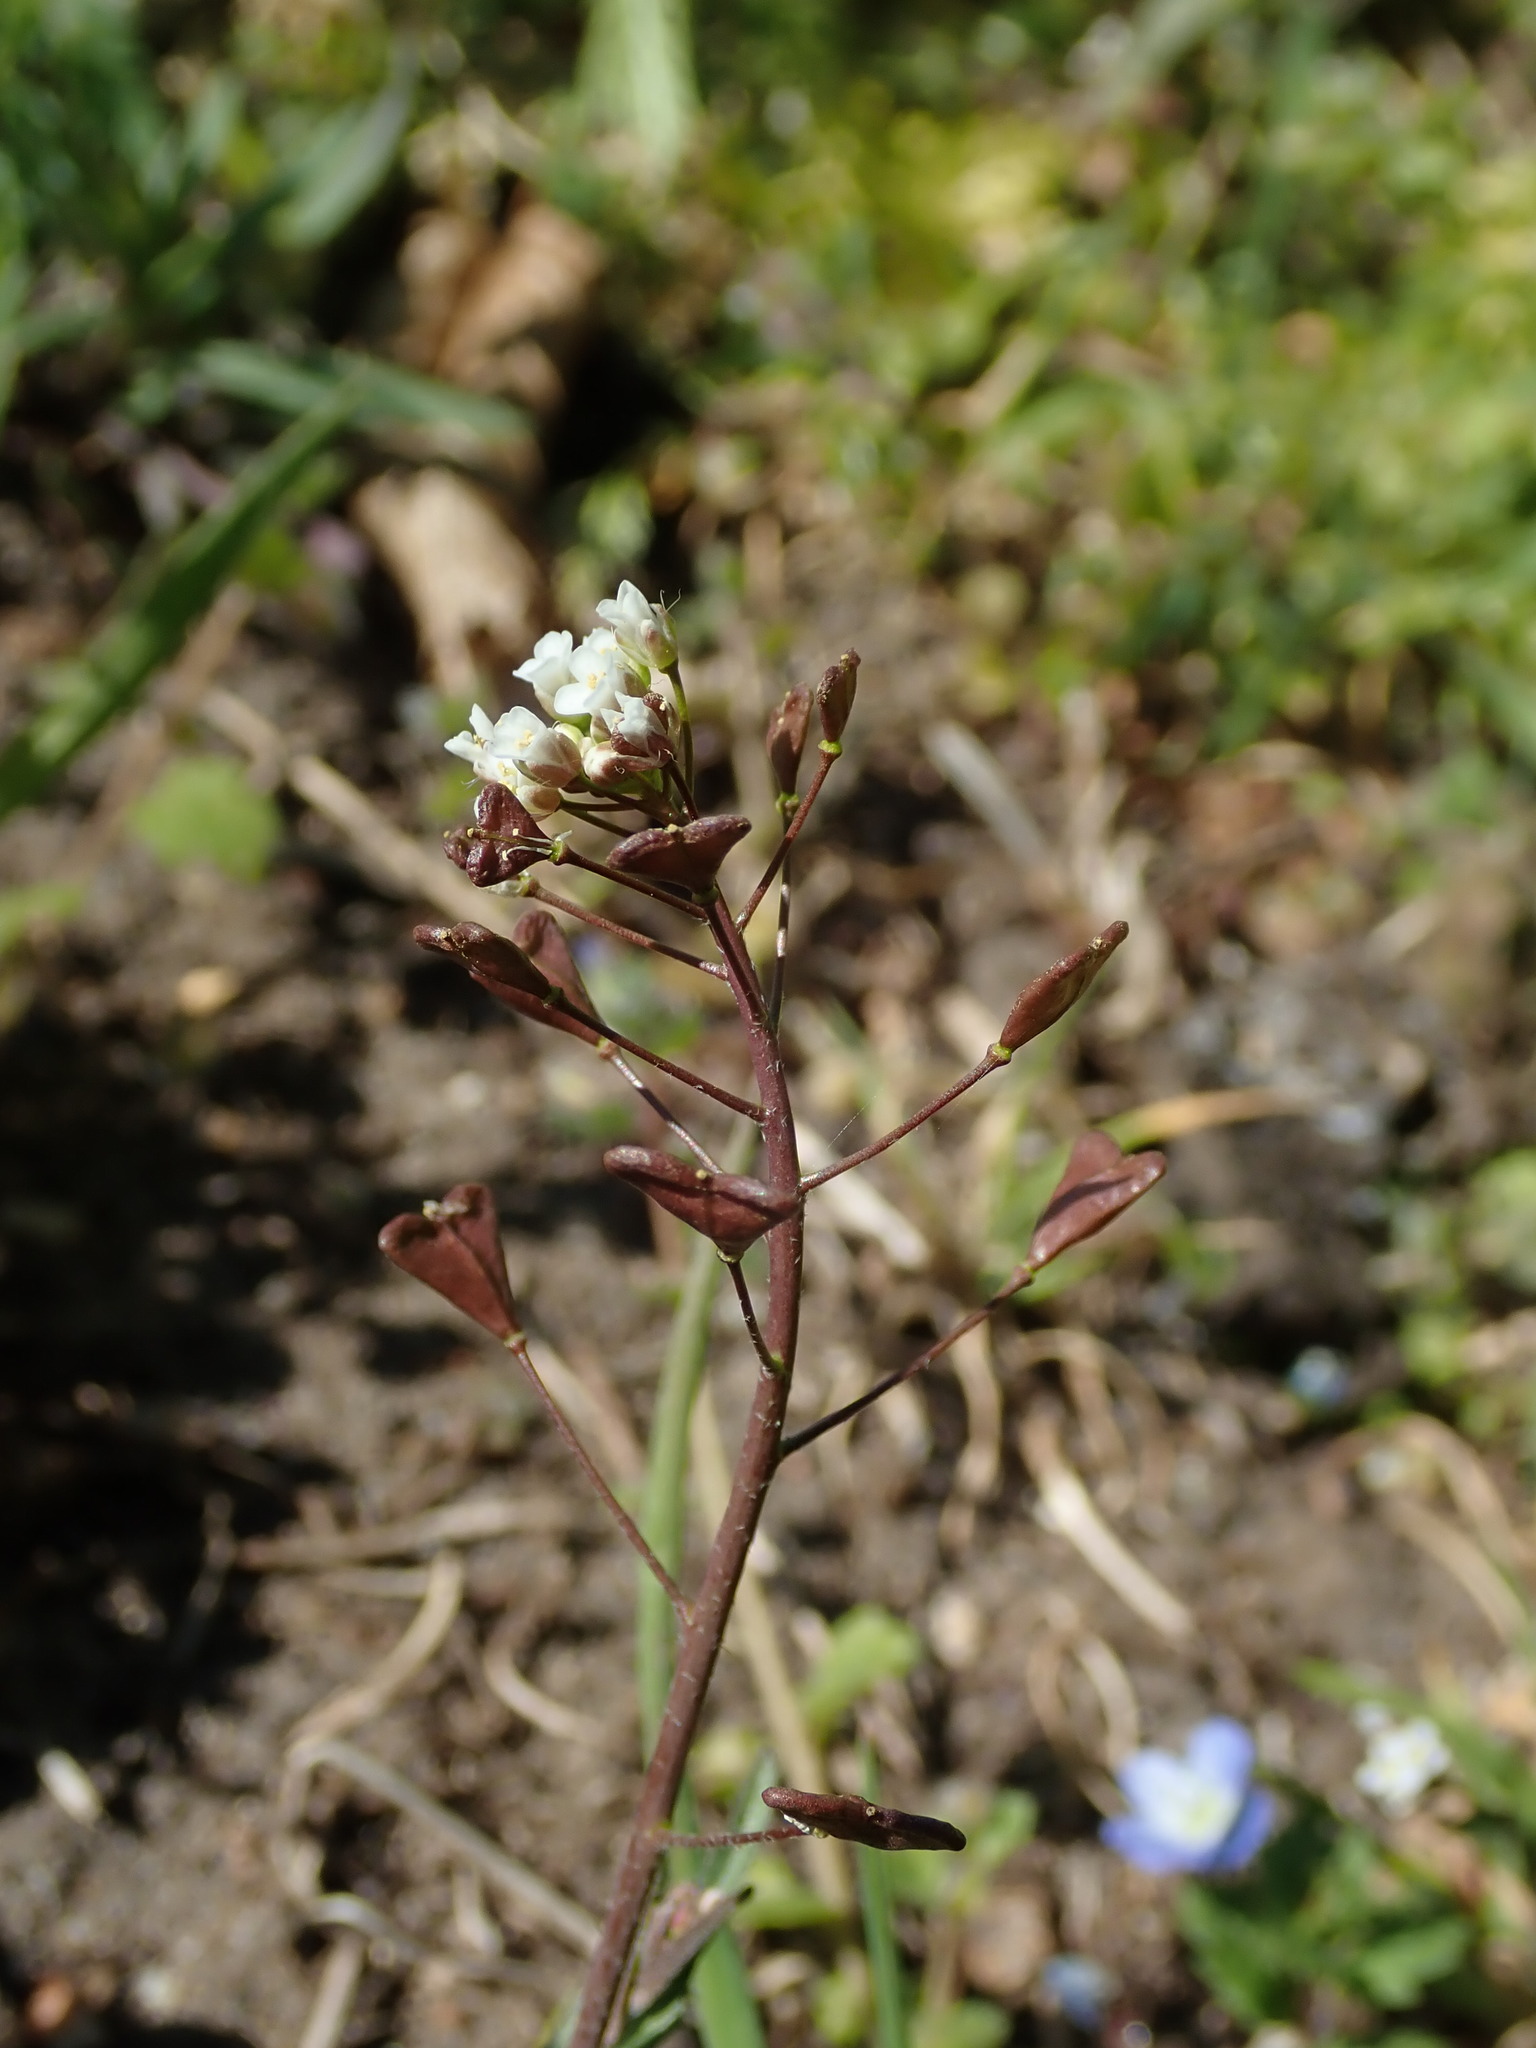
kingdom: Plantae
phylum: Tracheophyta
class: Magnoliopsida
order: Brassicales
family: Brassicaceae
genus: Capsella
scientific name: Capsella bursa-pastoris
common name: Shepherd's purse
